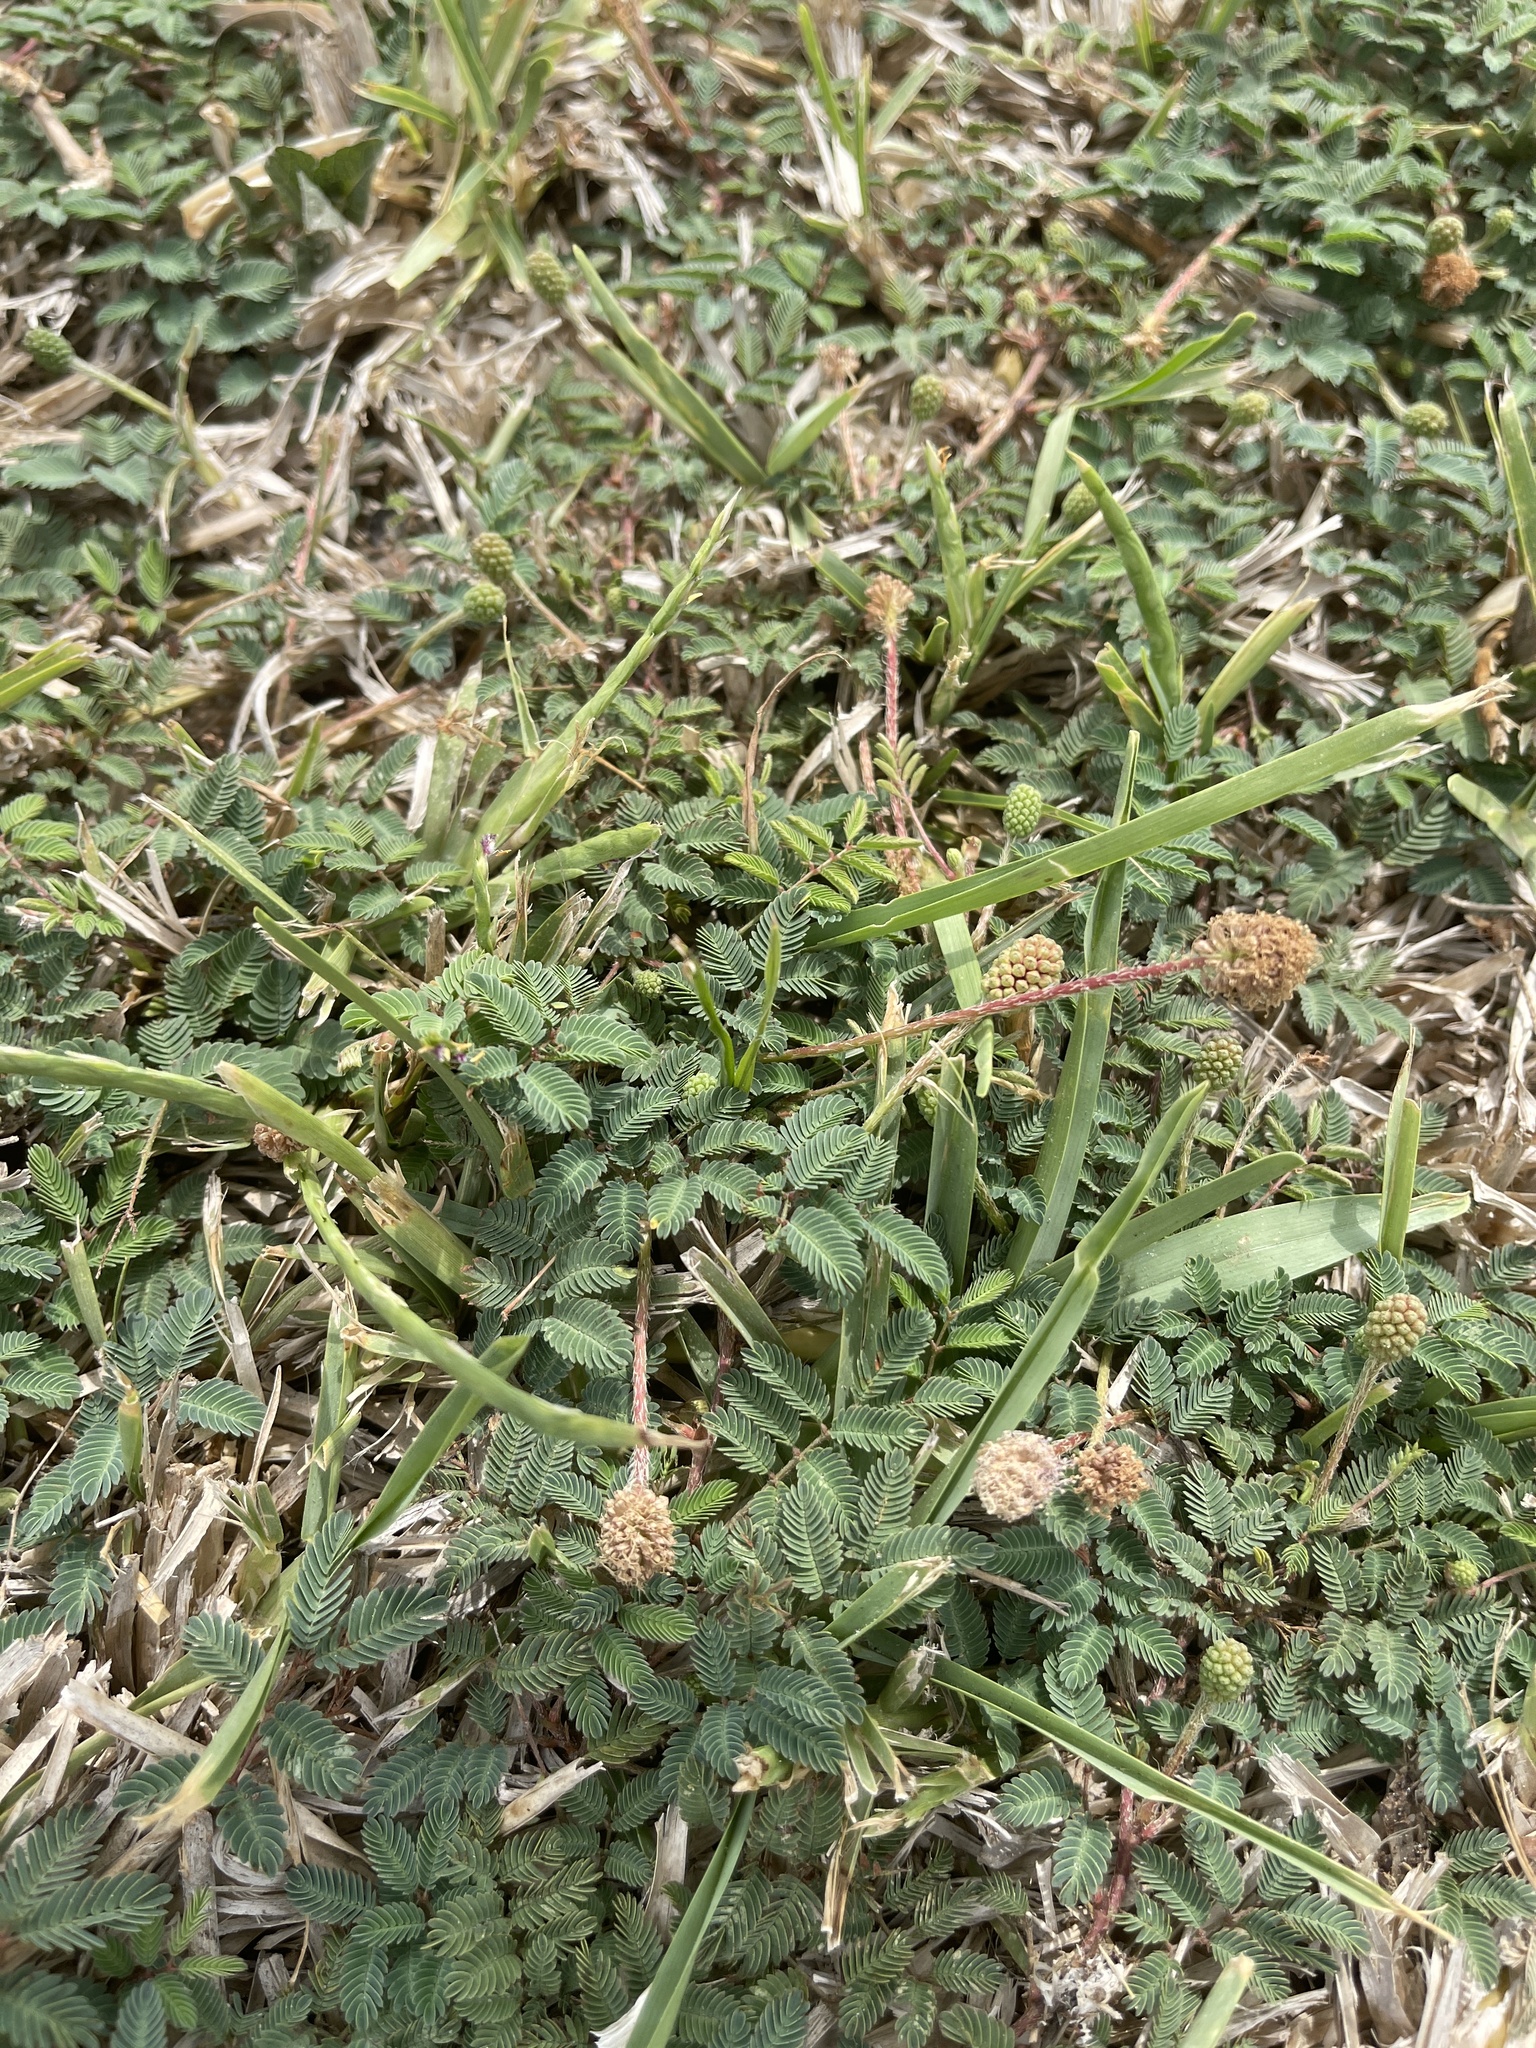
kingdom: Plantae
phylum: Tracheophyta
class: Magnoliopsida
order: Fabales
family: Fabaceae
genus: Mimosa
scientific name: Mimosa strigillosa
